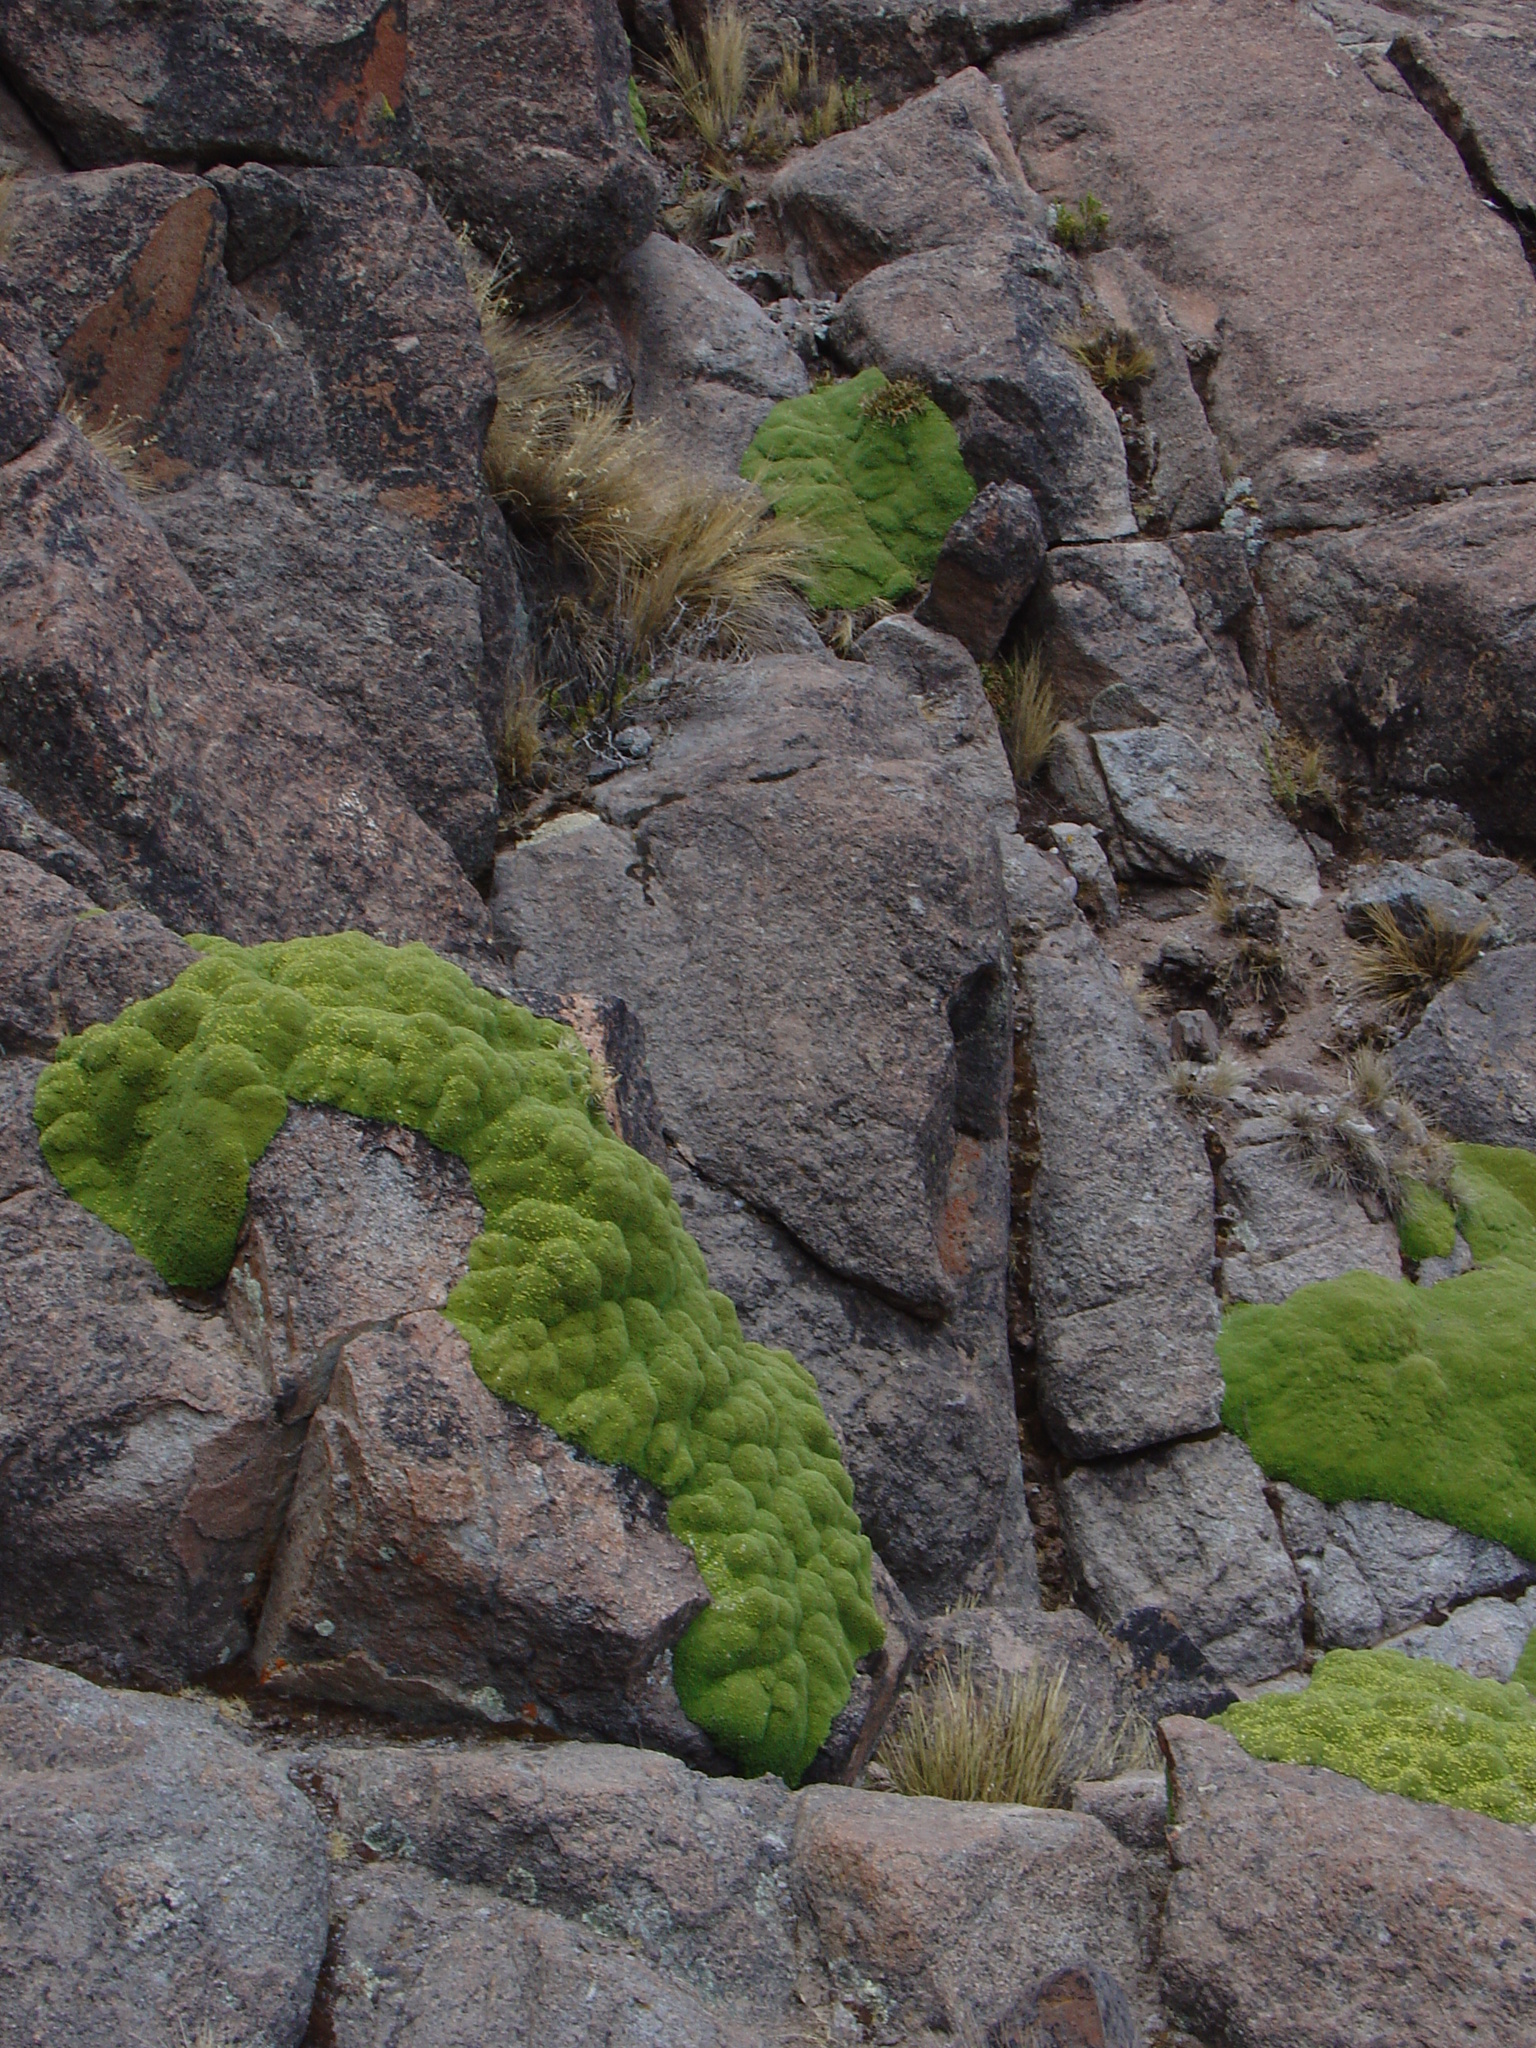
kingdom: Plantae
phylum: Tracheophyta
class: Magnoliopsida
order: Apiales
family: Apiaceae
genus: Azorella
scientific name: Azorella compacta
